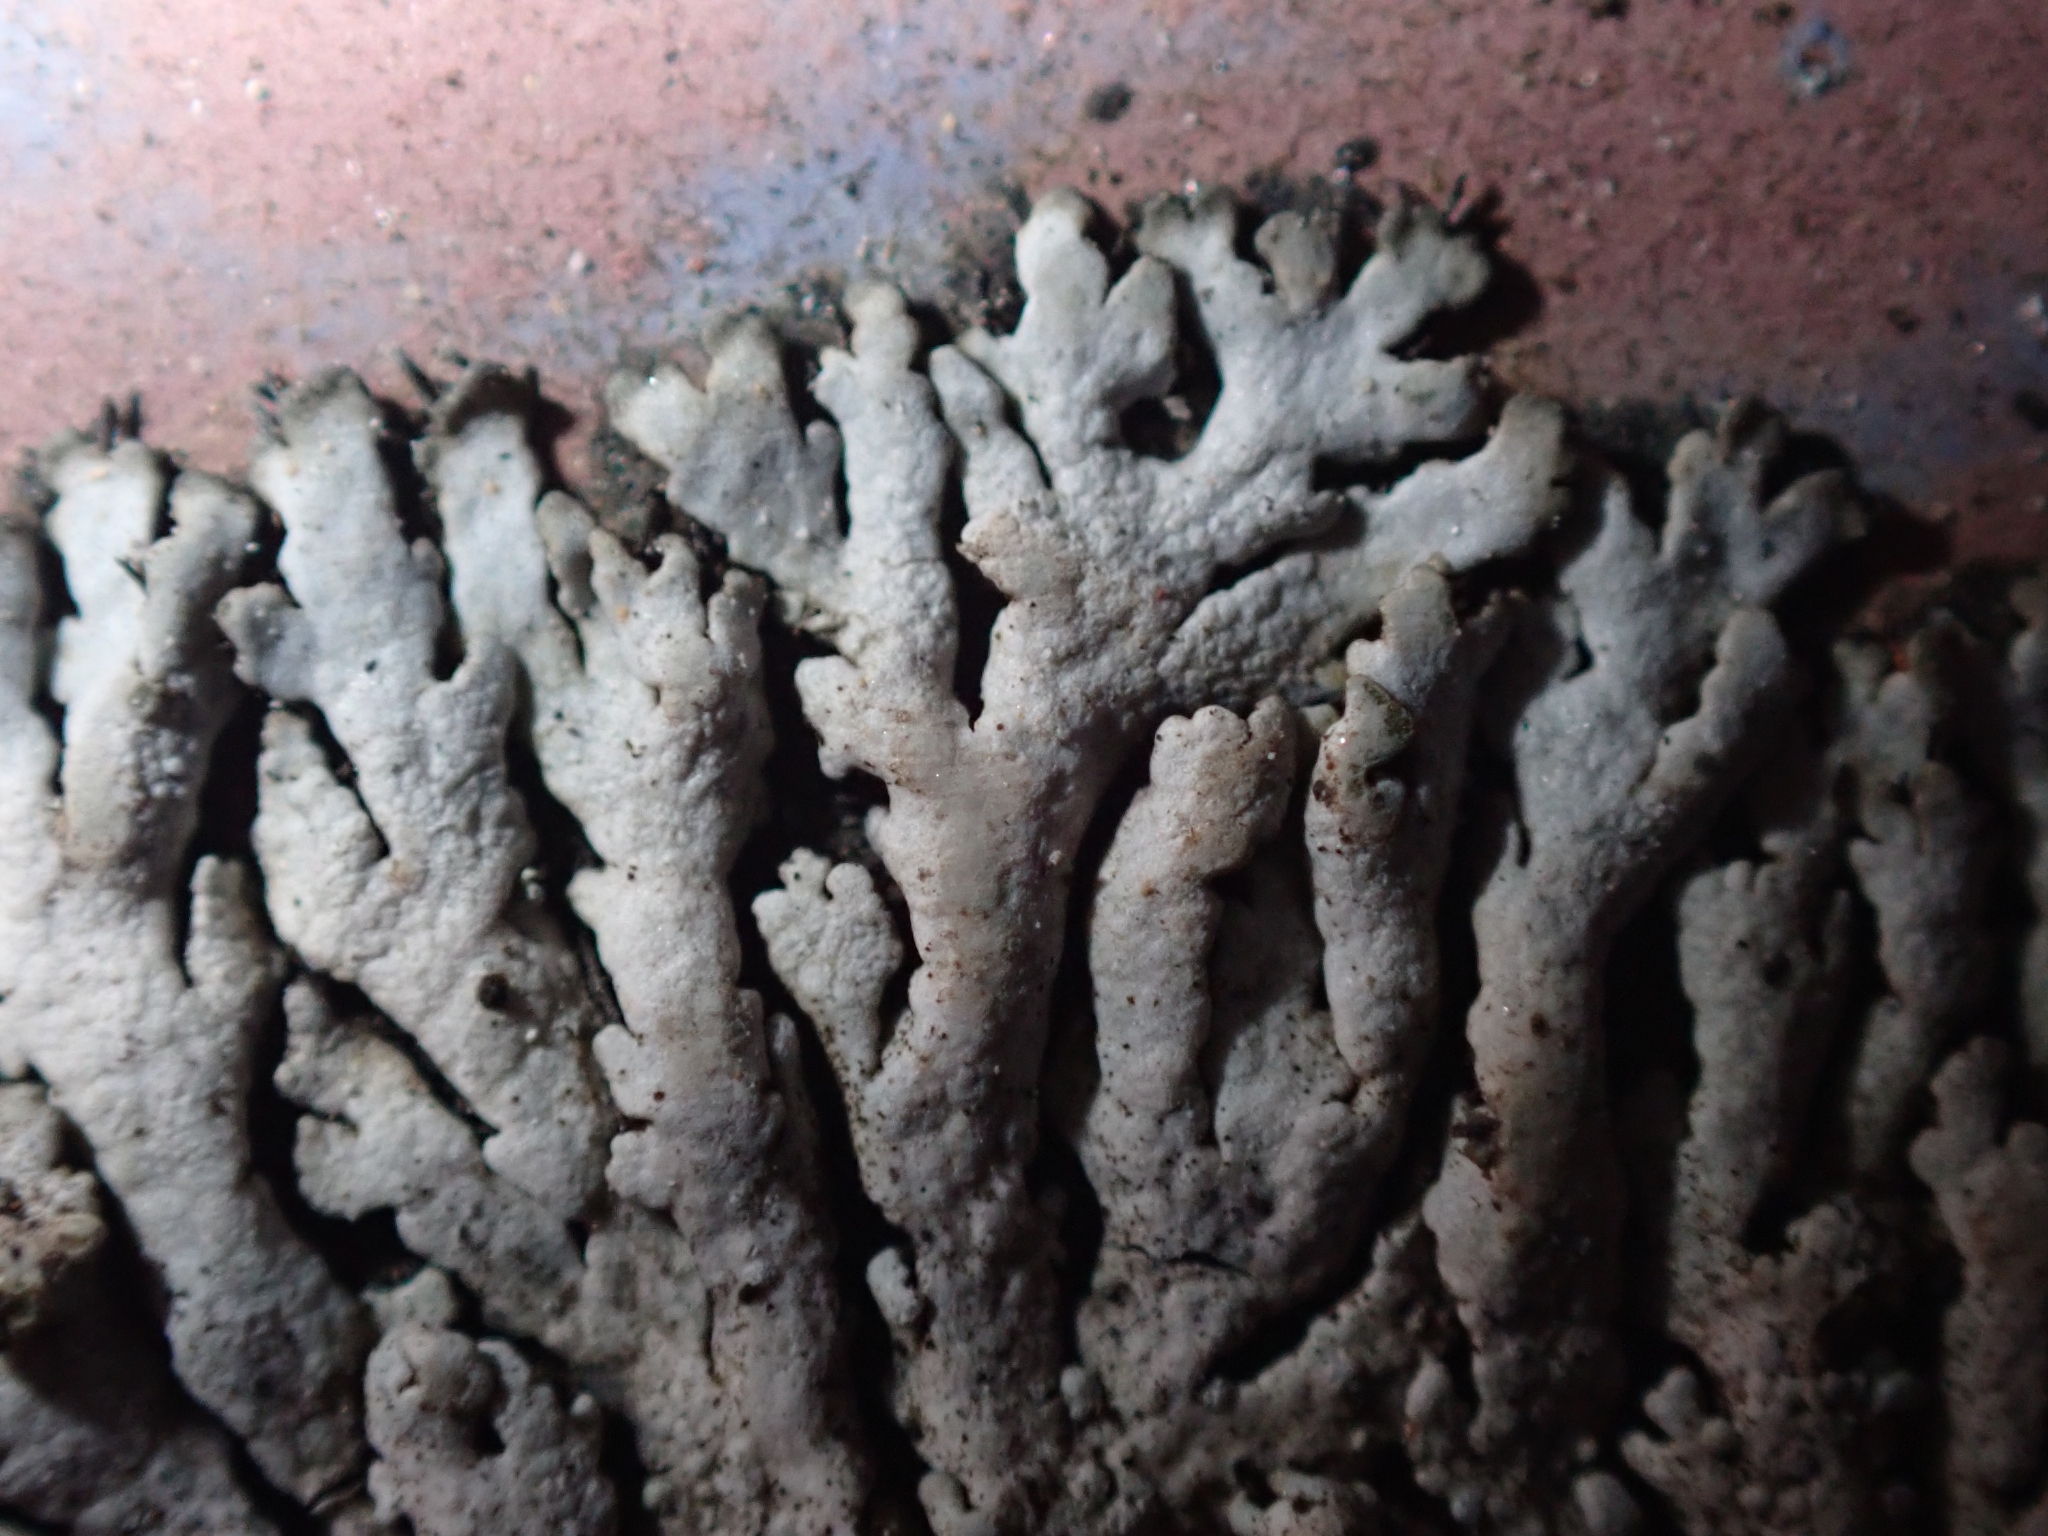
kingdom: Fungi
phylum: Ascomycota
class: Lecanoromycetes
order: Caliciales
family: Physciaceae
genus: Physcia
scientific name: Physcia caesia
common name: Blue-gray rosette lichen
